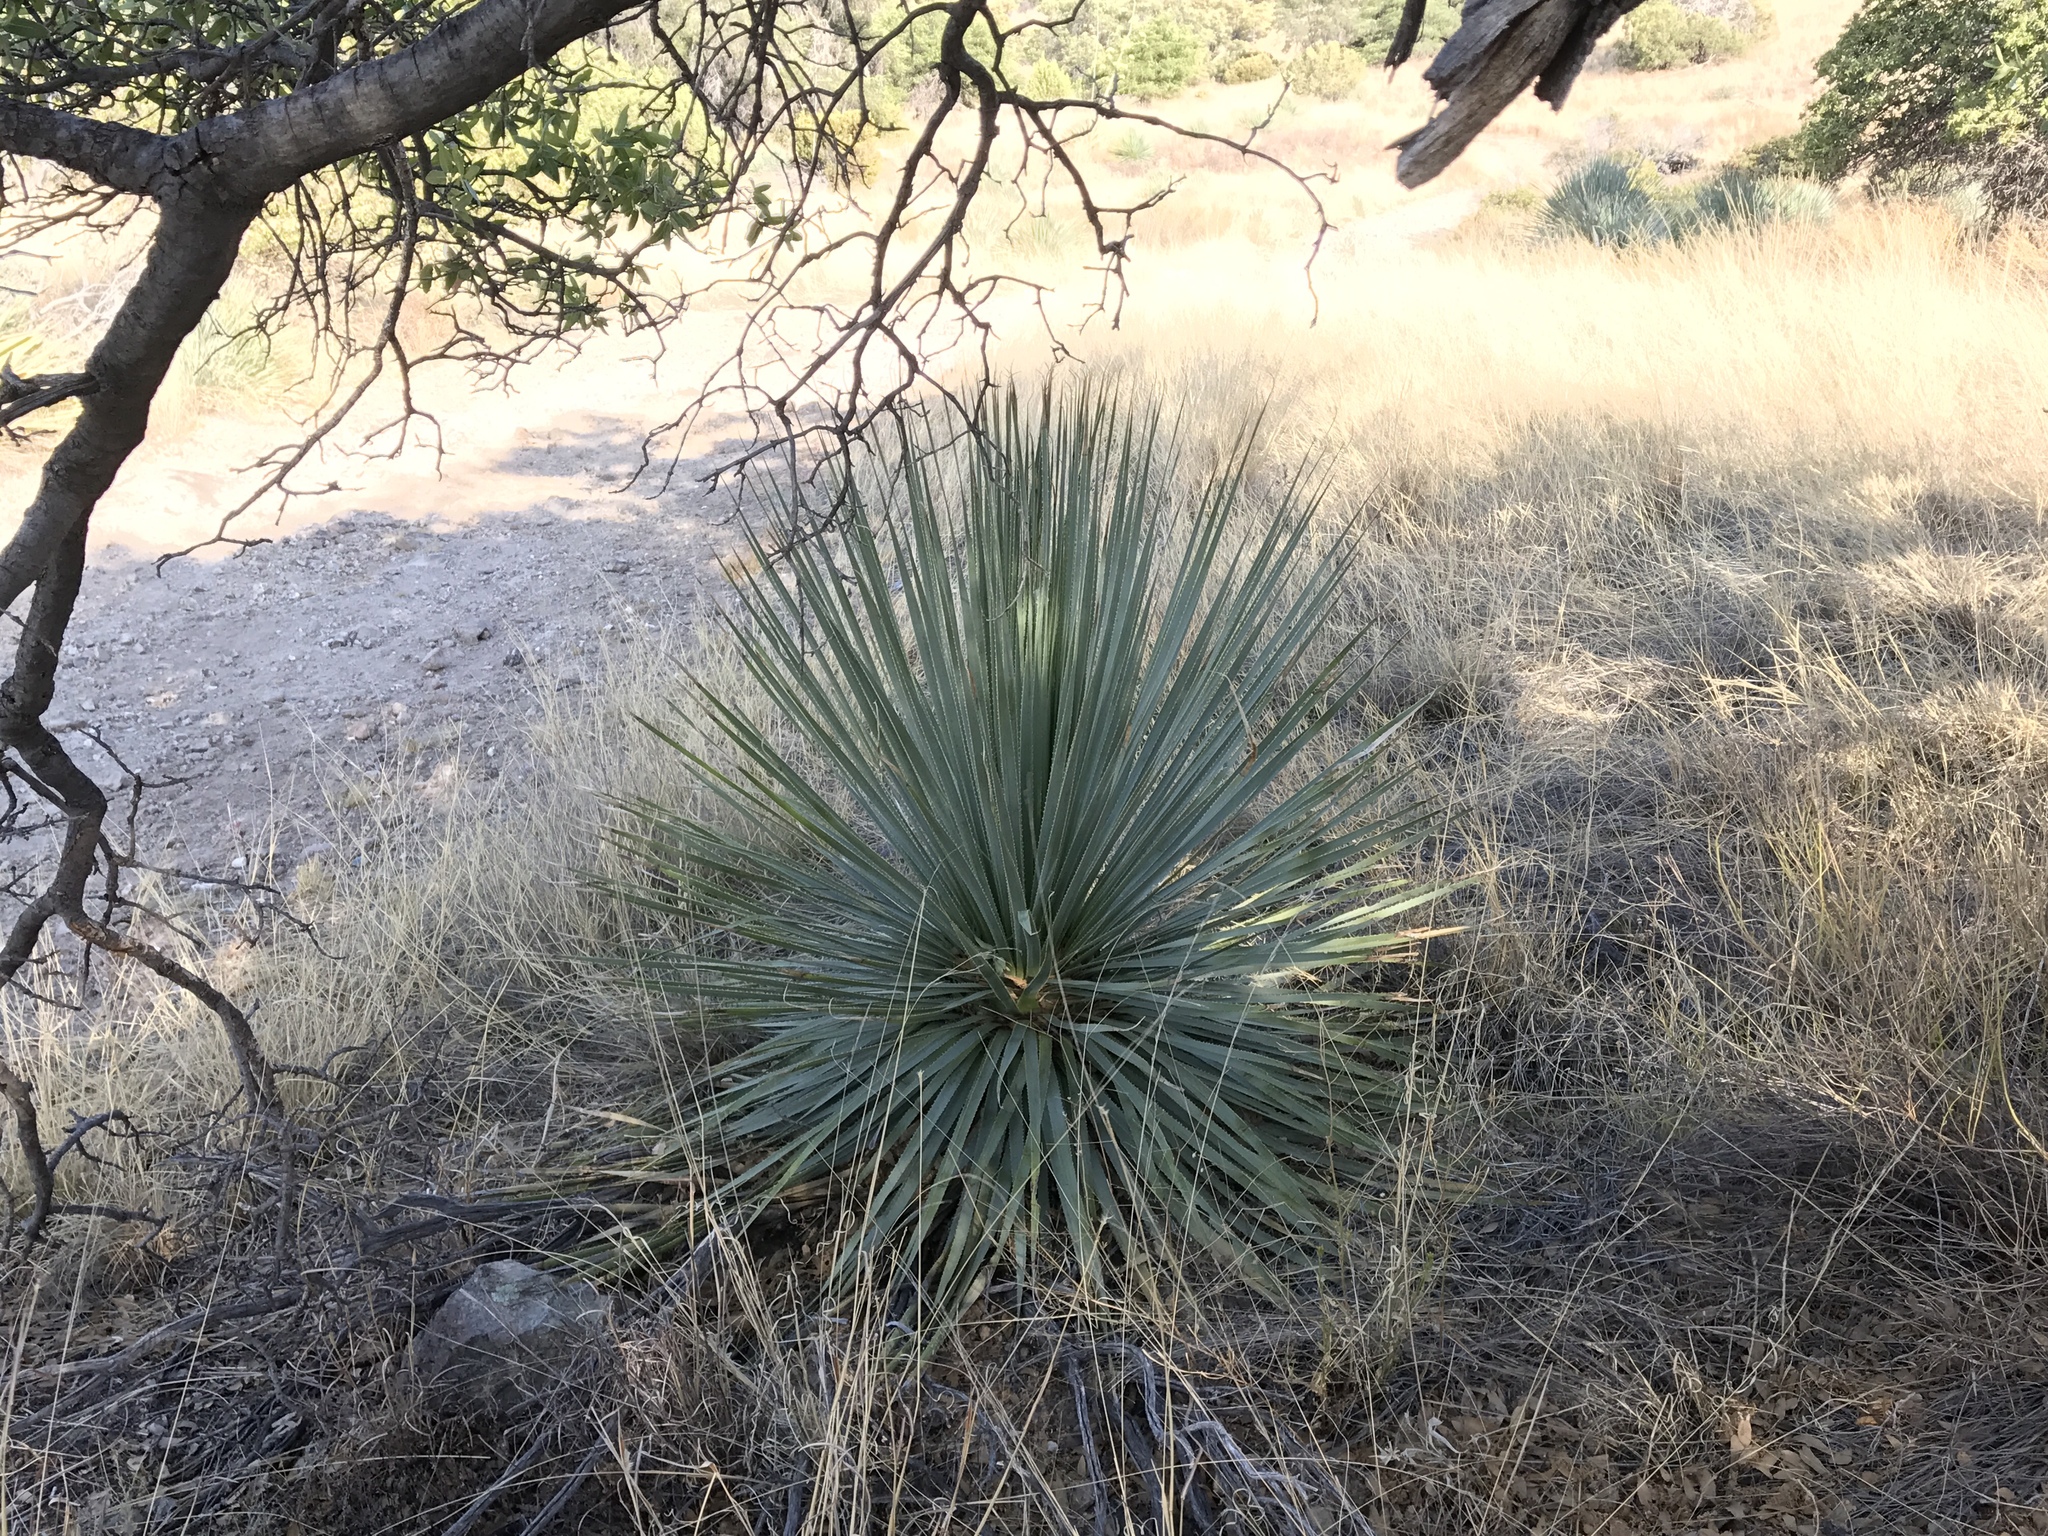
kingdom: Plantae
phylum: Tracheophyta
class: Liliopsida
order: Asparagales
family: Asparagaceae
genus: Dasylirion
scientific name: Dasylirion wheeleri
